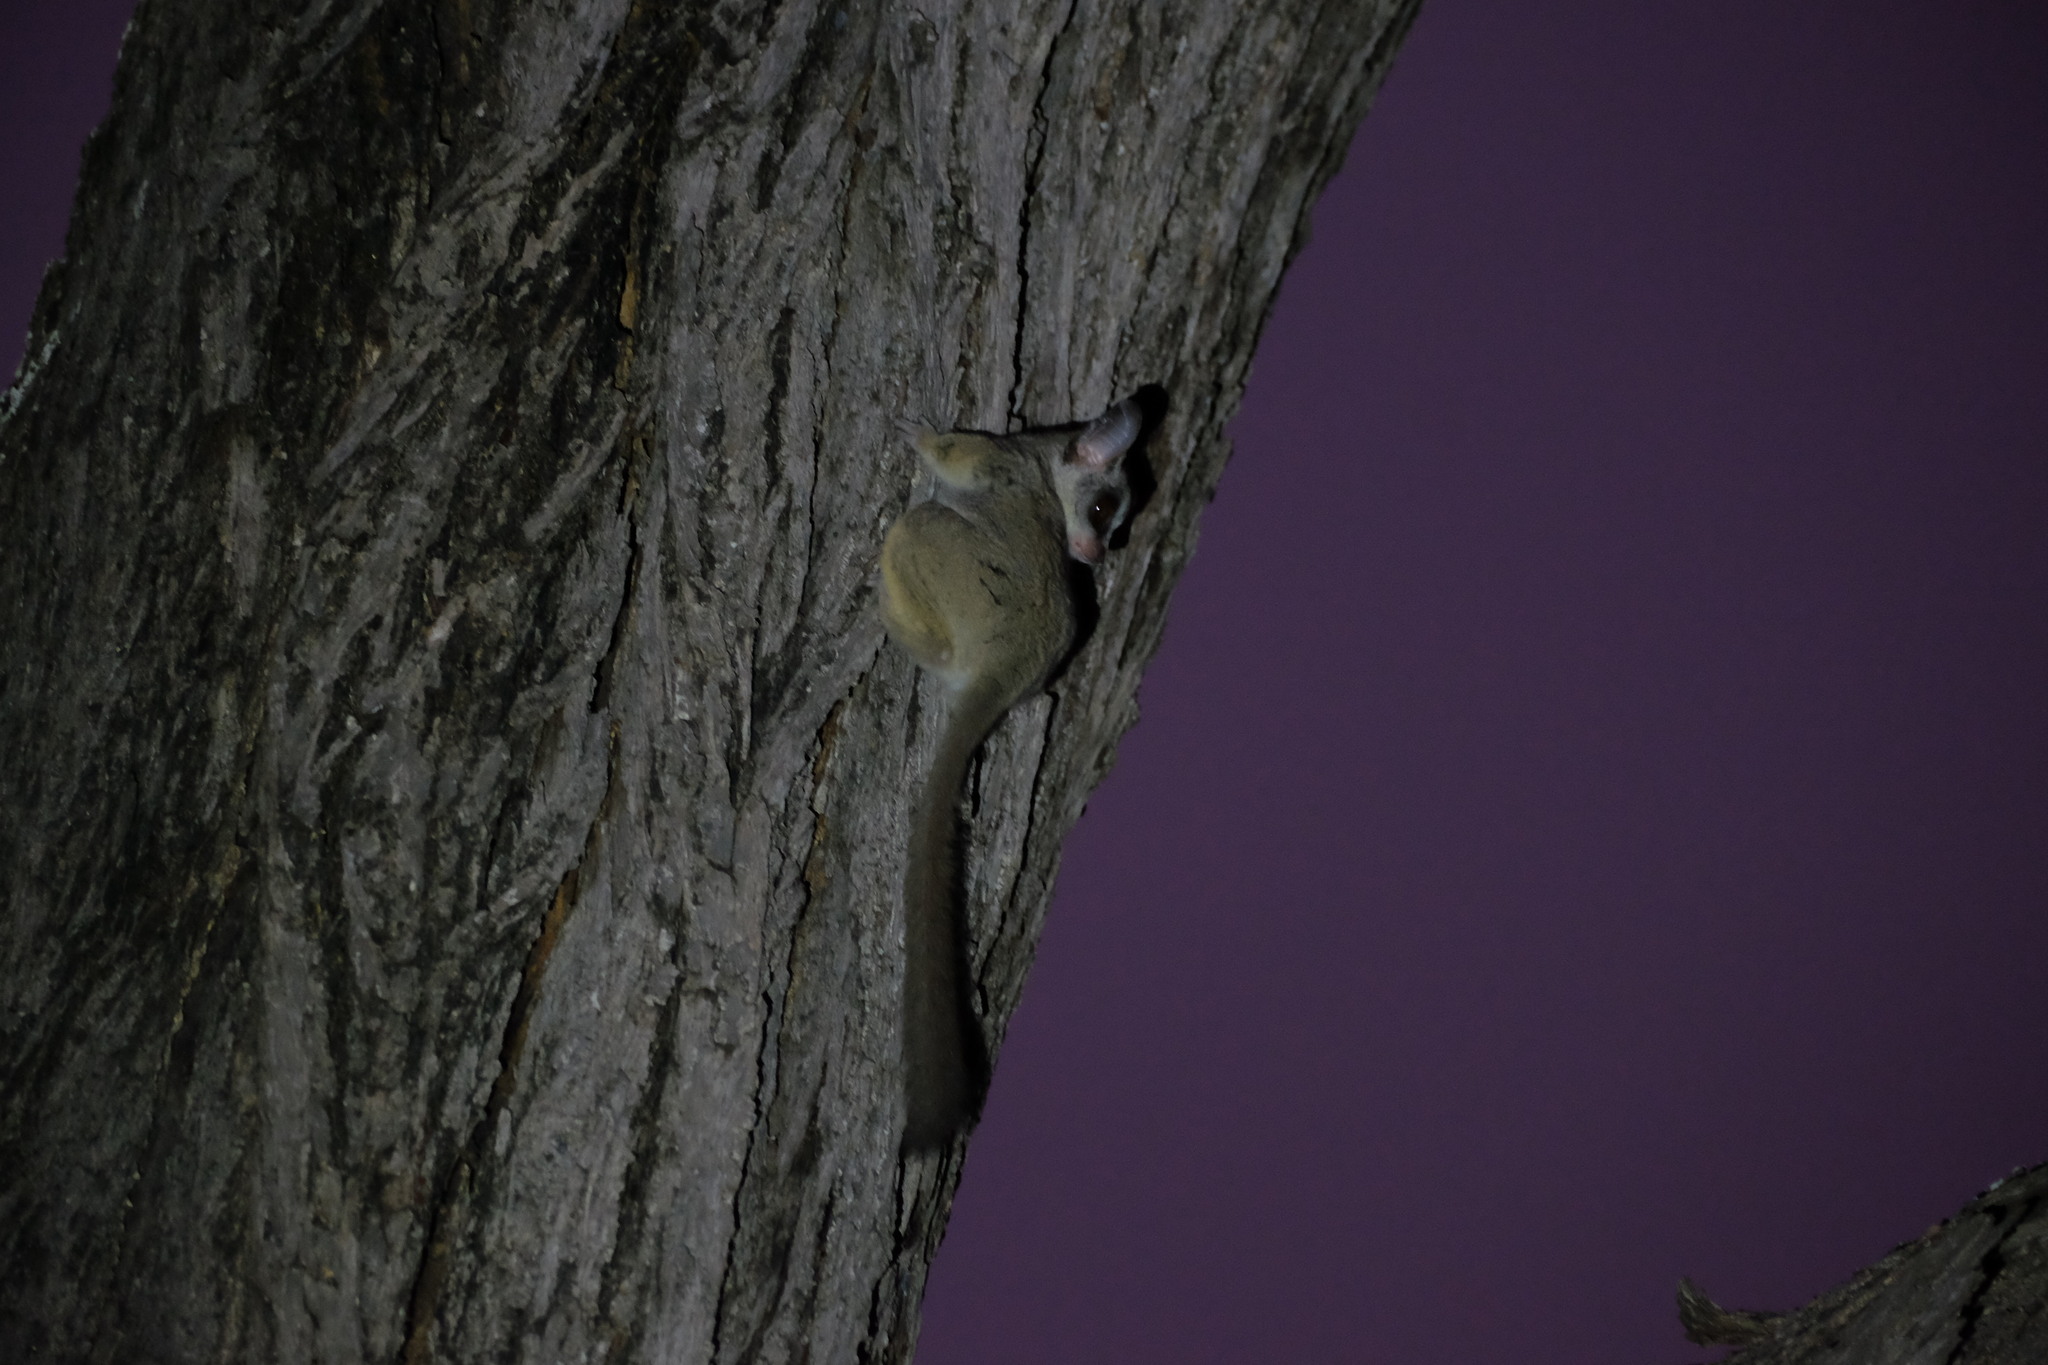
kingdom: Animalia
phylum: Chordata
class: Mammalia
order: Primates
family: Galagidae
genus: Galago
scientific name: Galago moholi
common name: Moholi bushbaby
